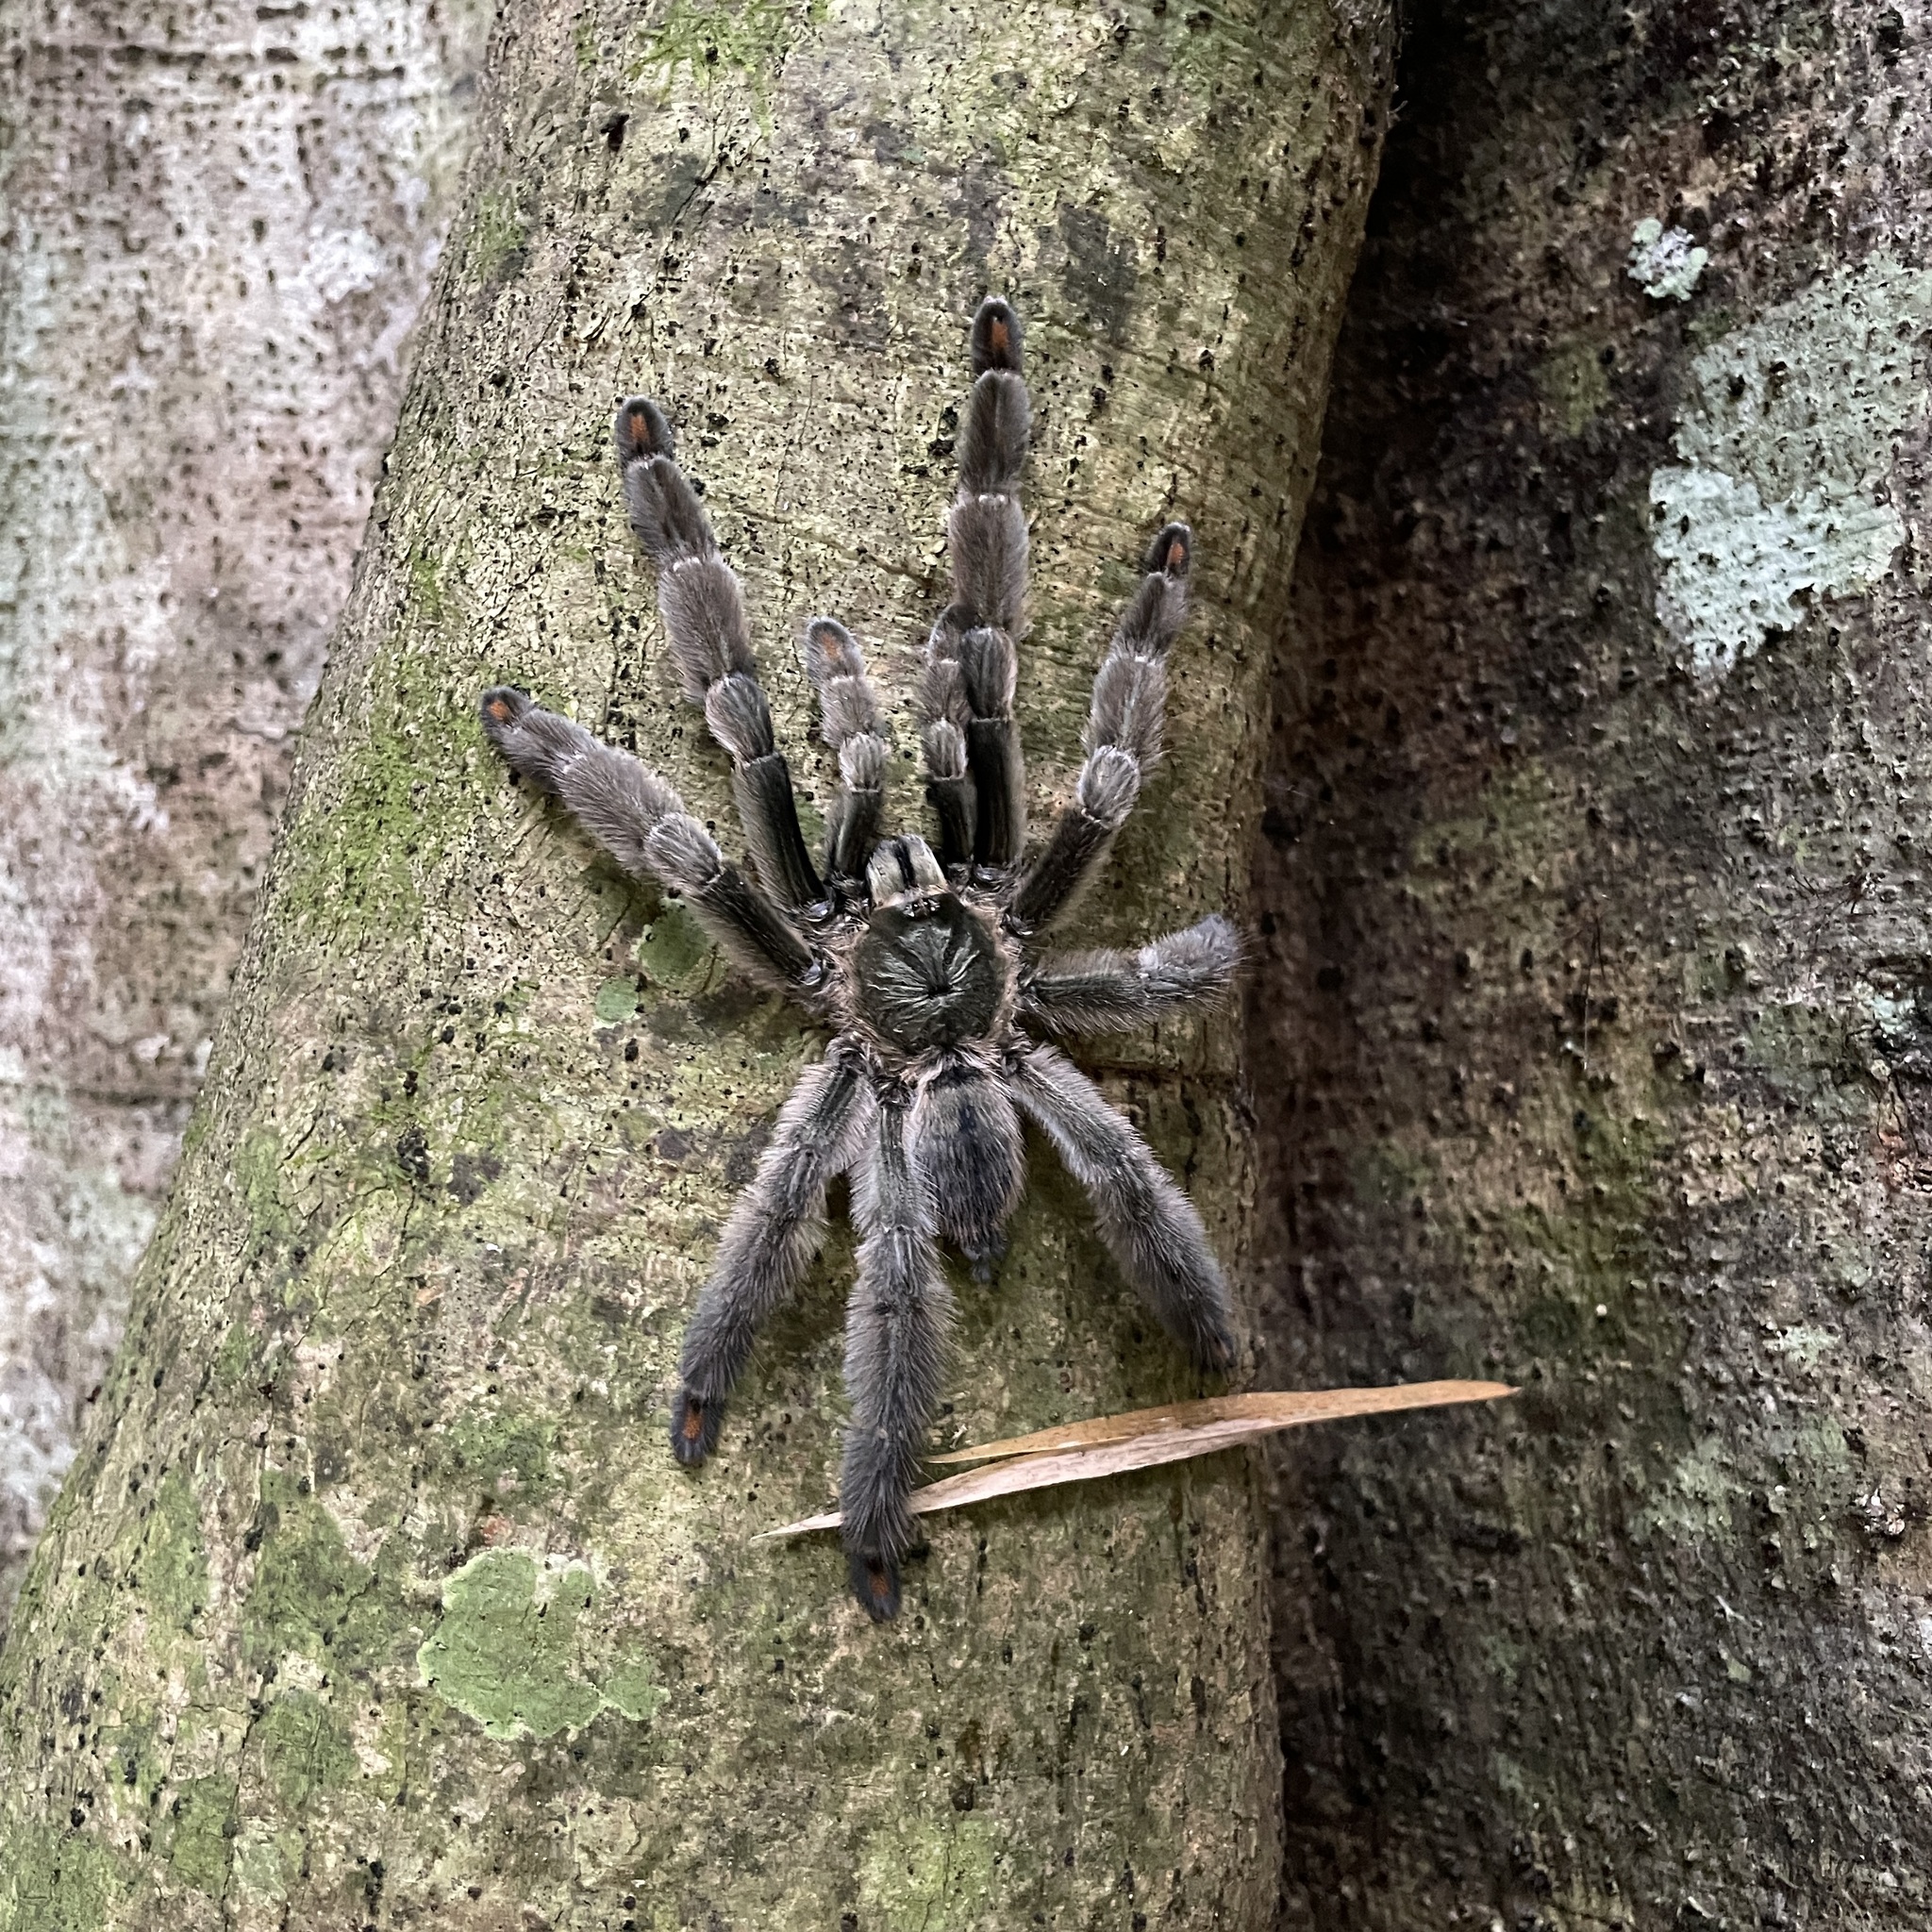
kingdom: Animalia
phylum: Arthropoda
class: Arachnida
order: Araneae
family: Theraphosidae
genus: Psalmopoeus
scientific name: Psalmopoeus cambridgei
